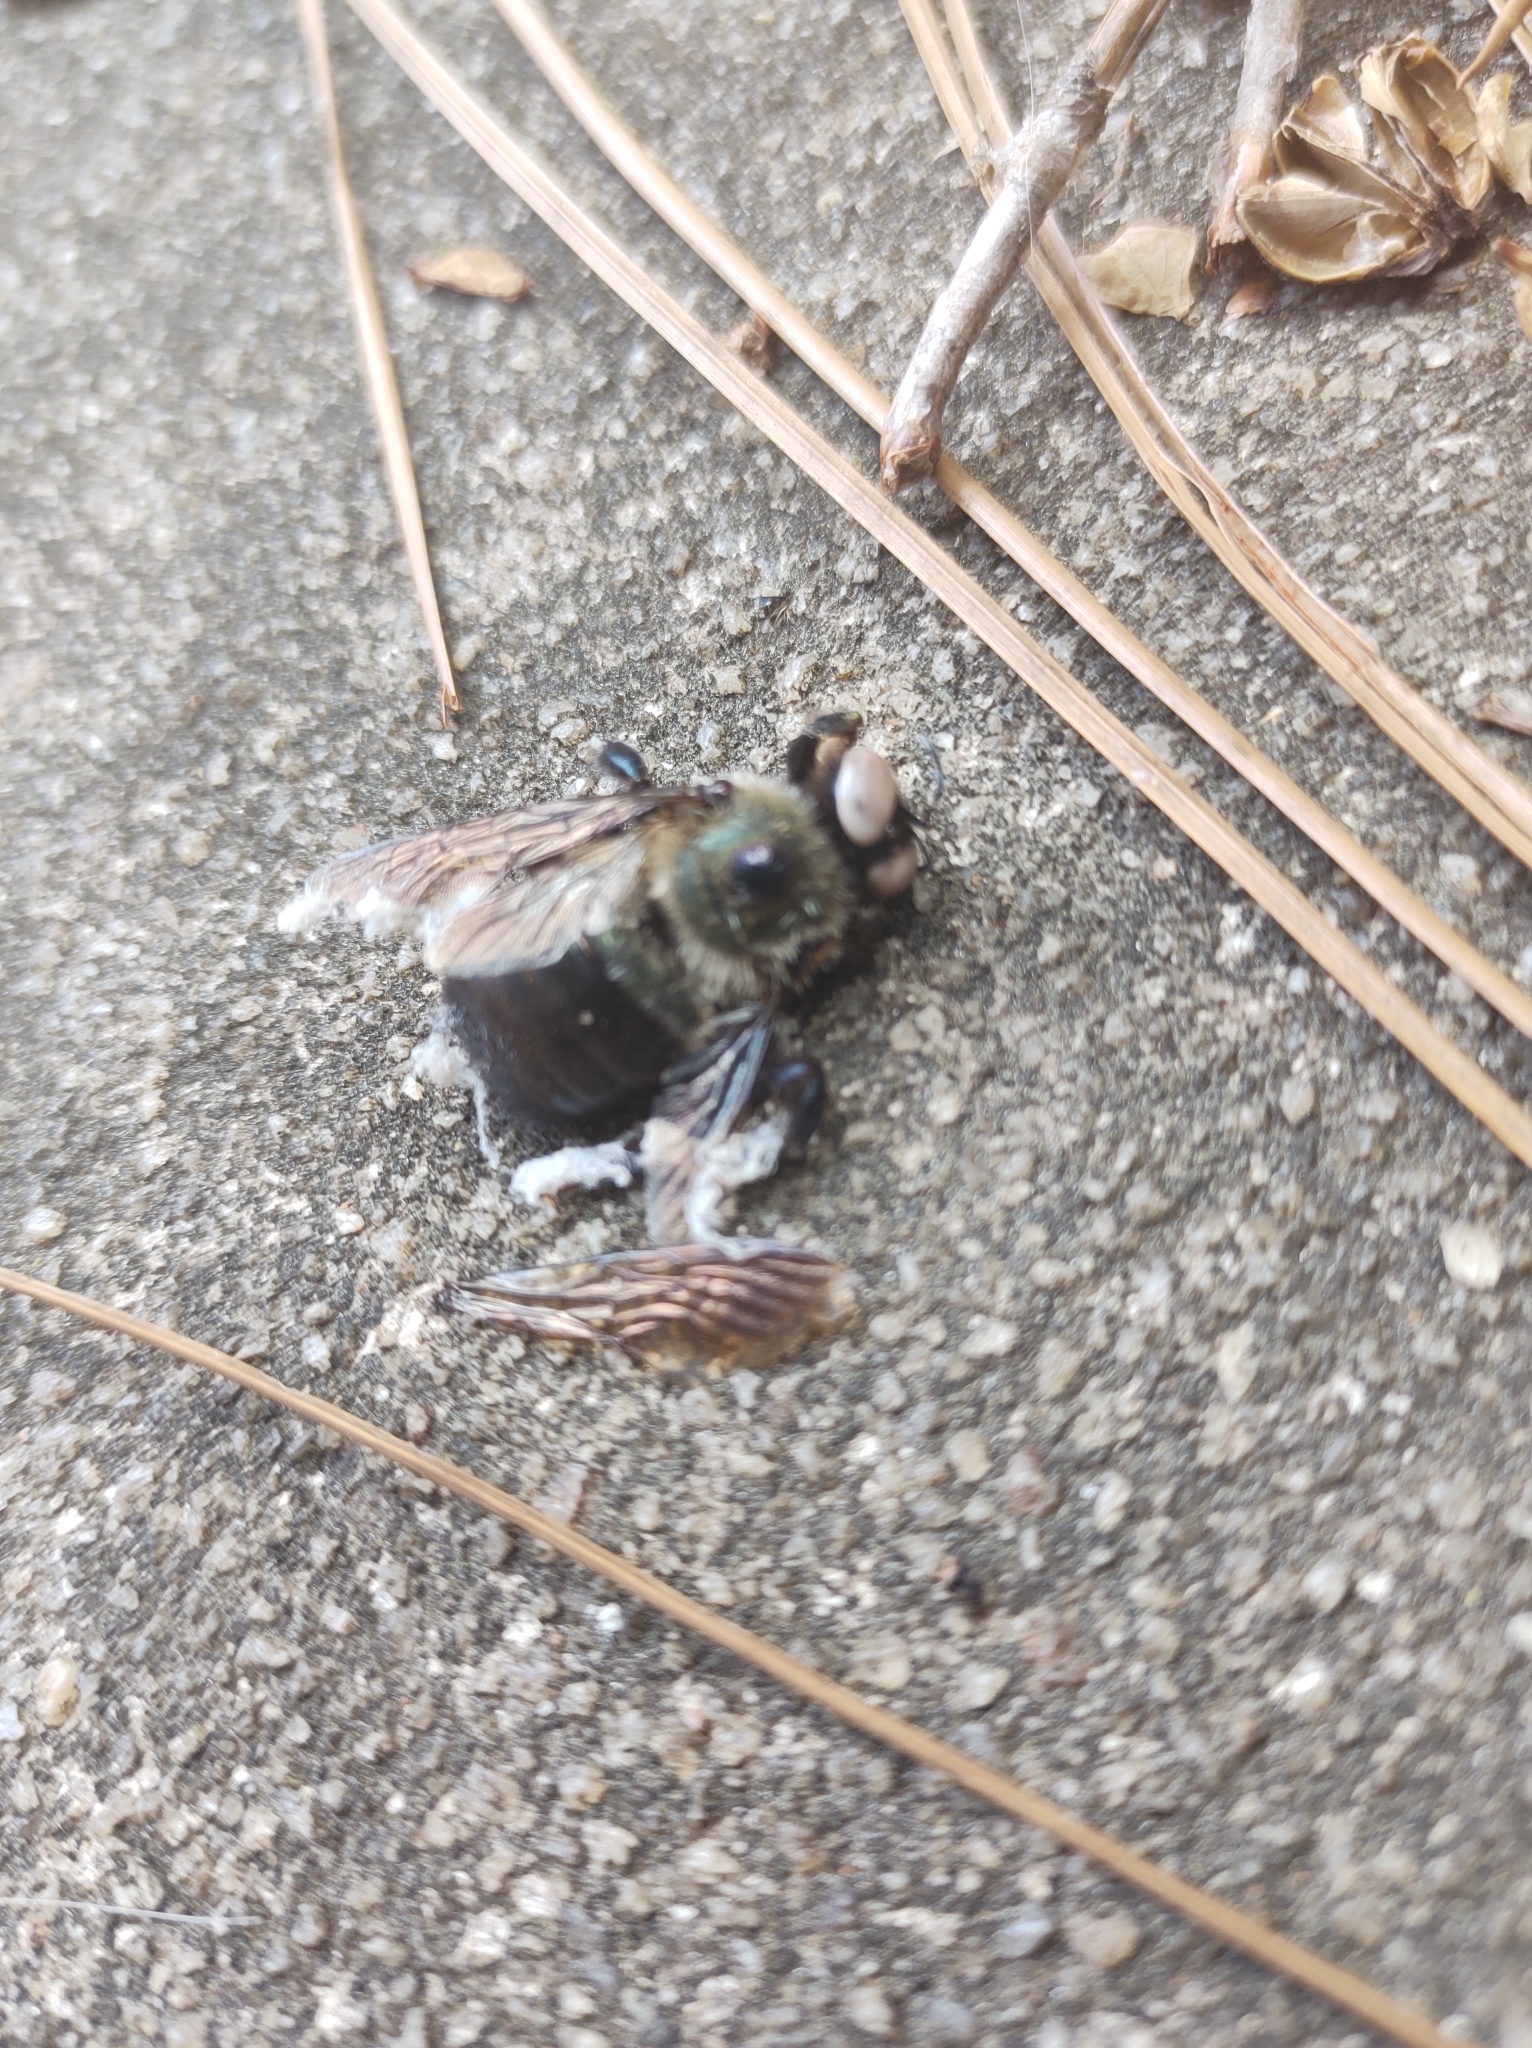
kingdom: Animalia
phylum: Arthropoda
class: Insecta
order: Hymenoptera
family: Apidae
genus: Xylocopa
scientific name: Xylocopa virginica
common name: Carpenter bee
